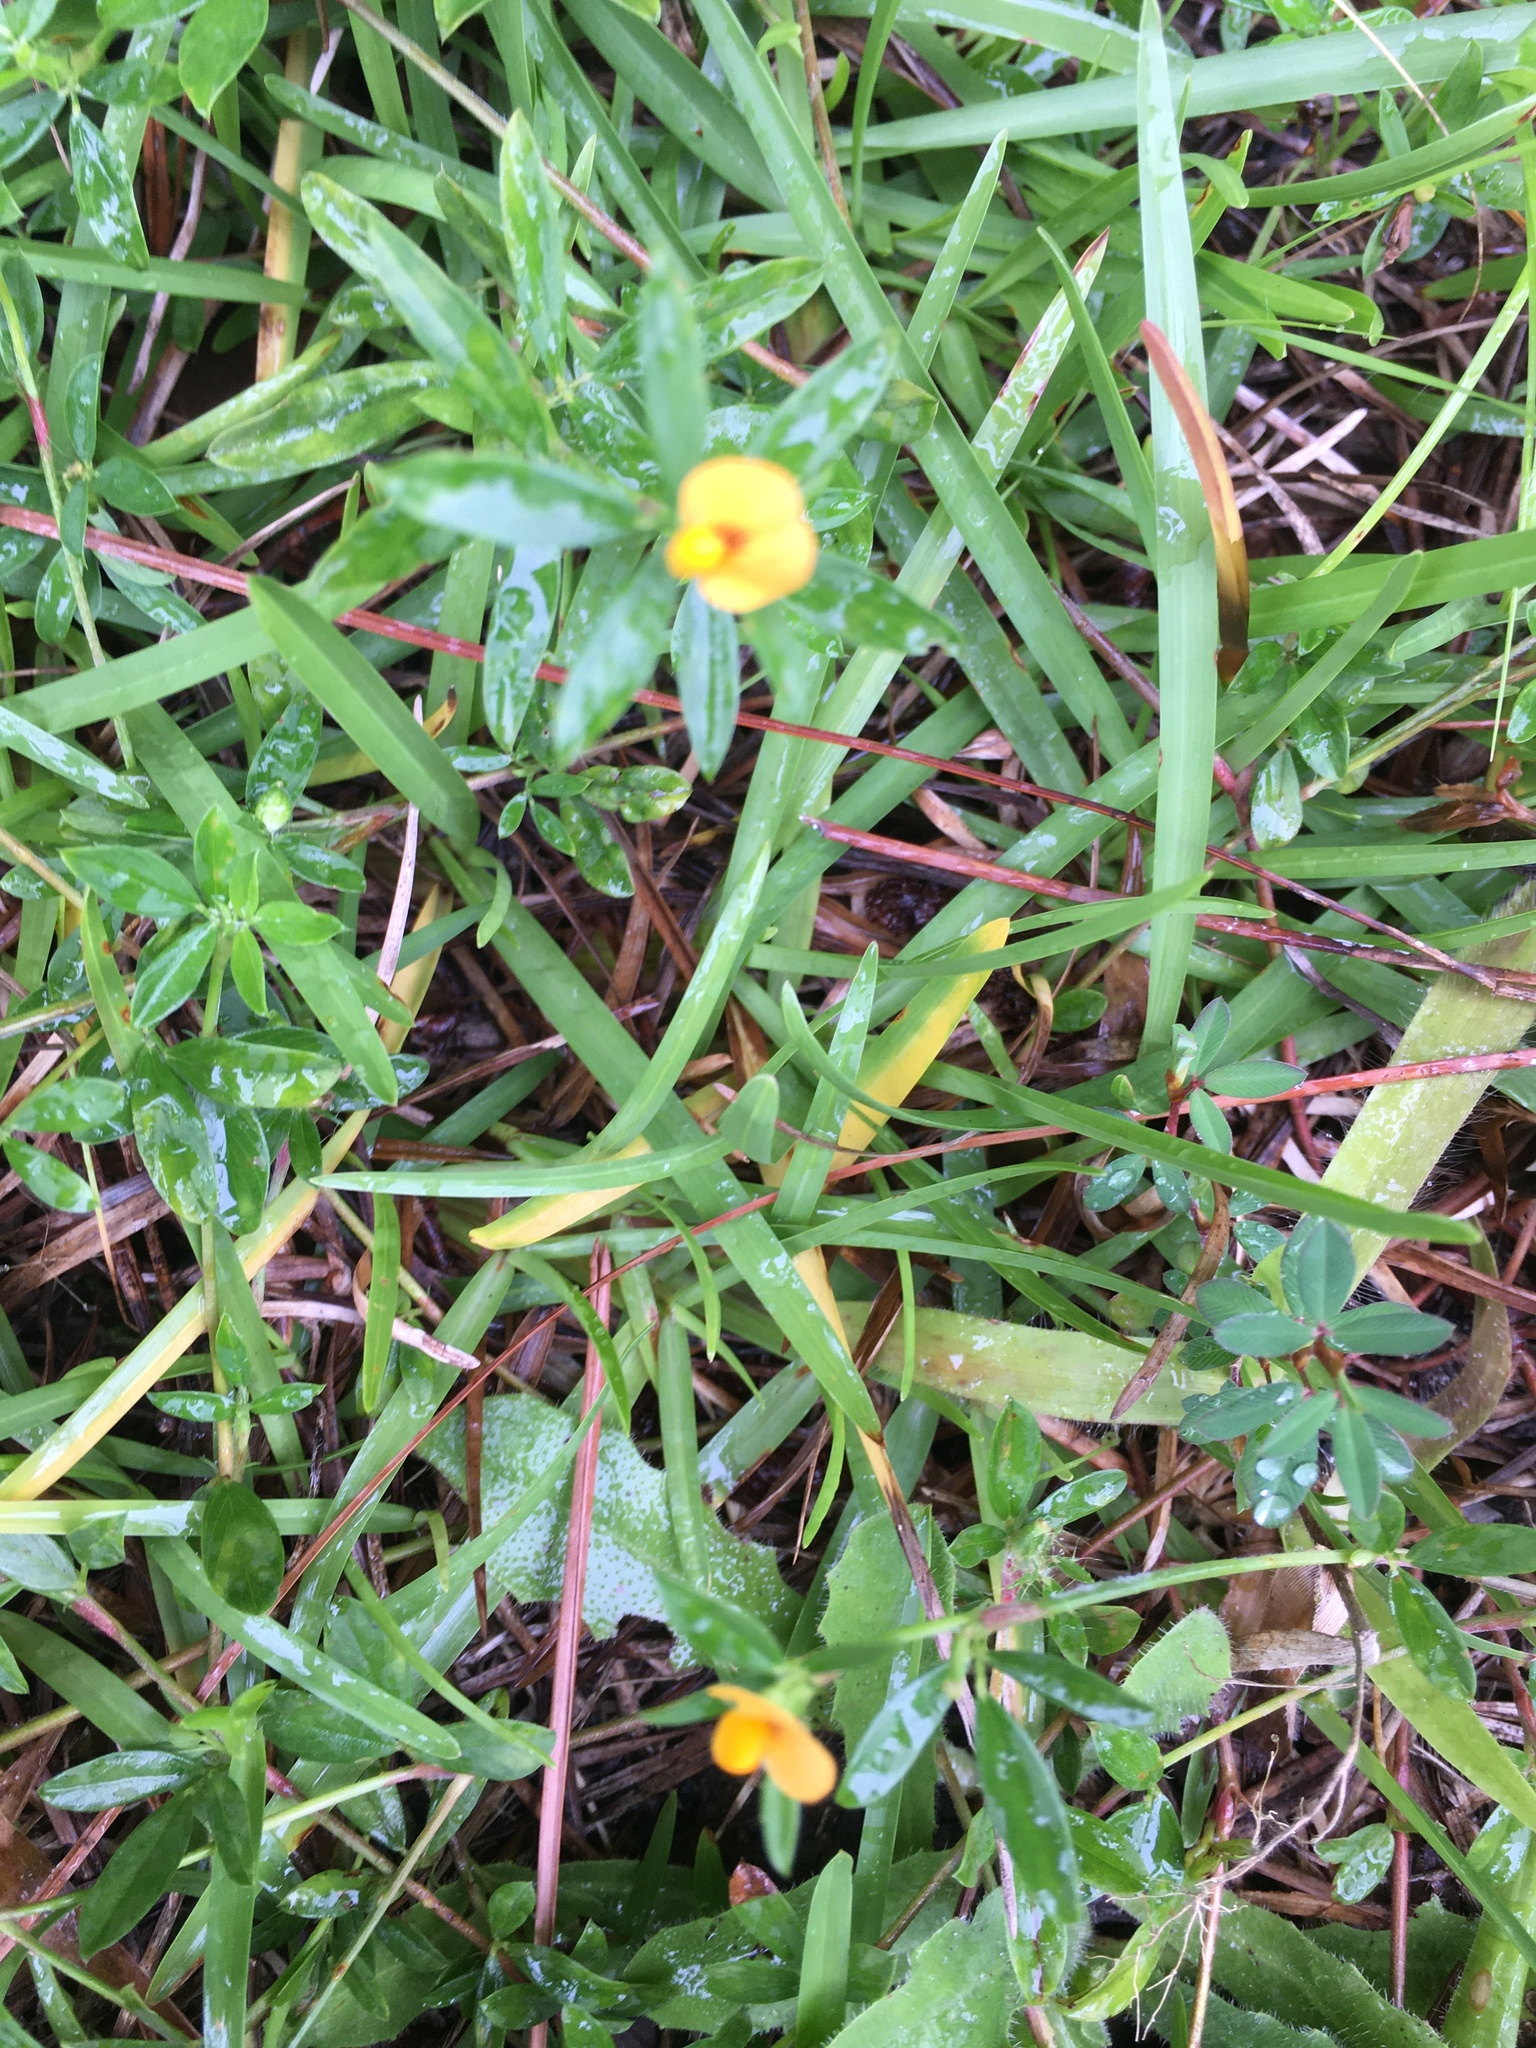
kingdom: Plantae
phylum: Tracheophyta
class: Magnoliopsida
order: Fabales
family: Fabaceae
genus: Stylosanthes
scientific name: Stylosanthes biflora
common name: Two-flower pencil-flower
